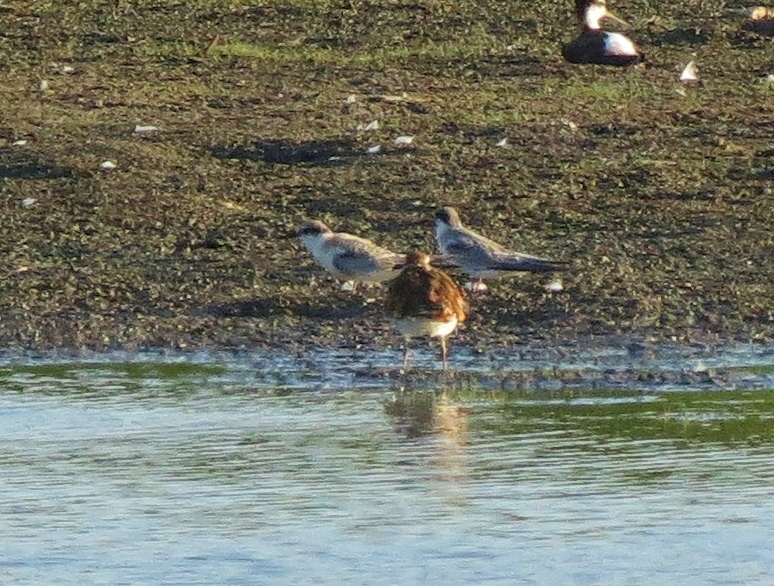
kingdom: Animalia
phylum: Chordata
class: Aves
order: Charadriiformes
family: Laridae
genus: Sternula
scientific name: Sternula antillarum
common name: Least tern
